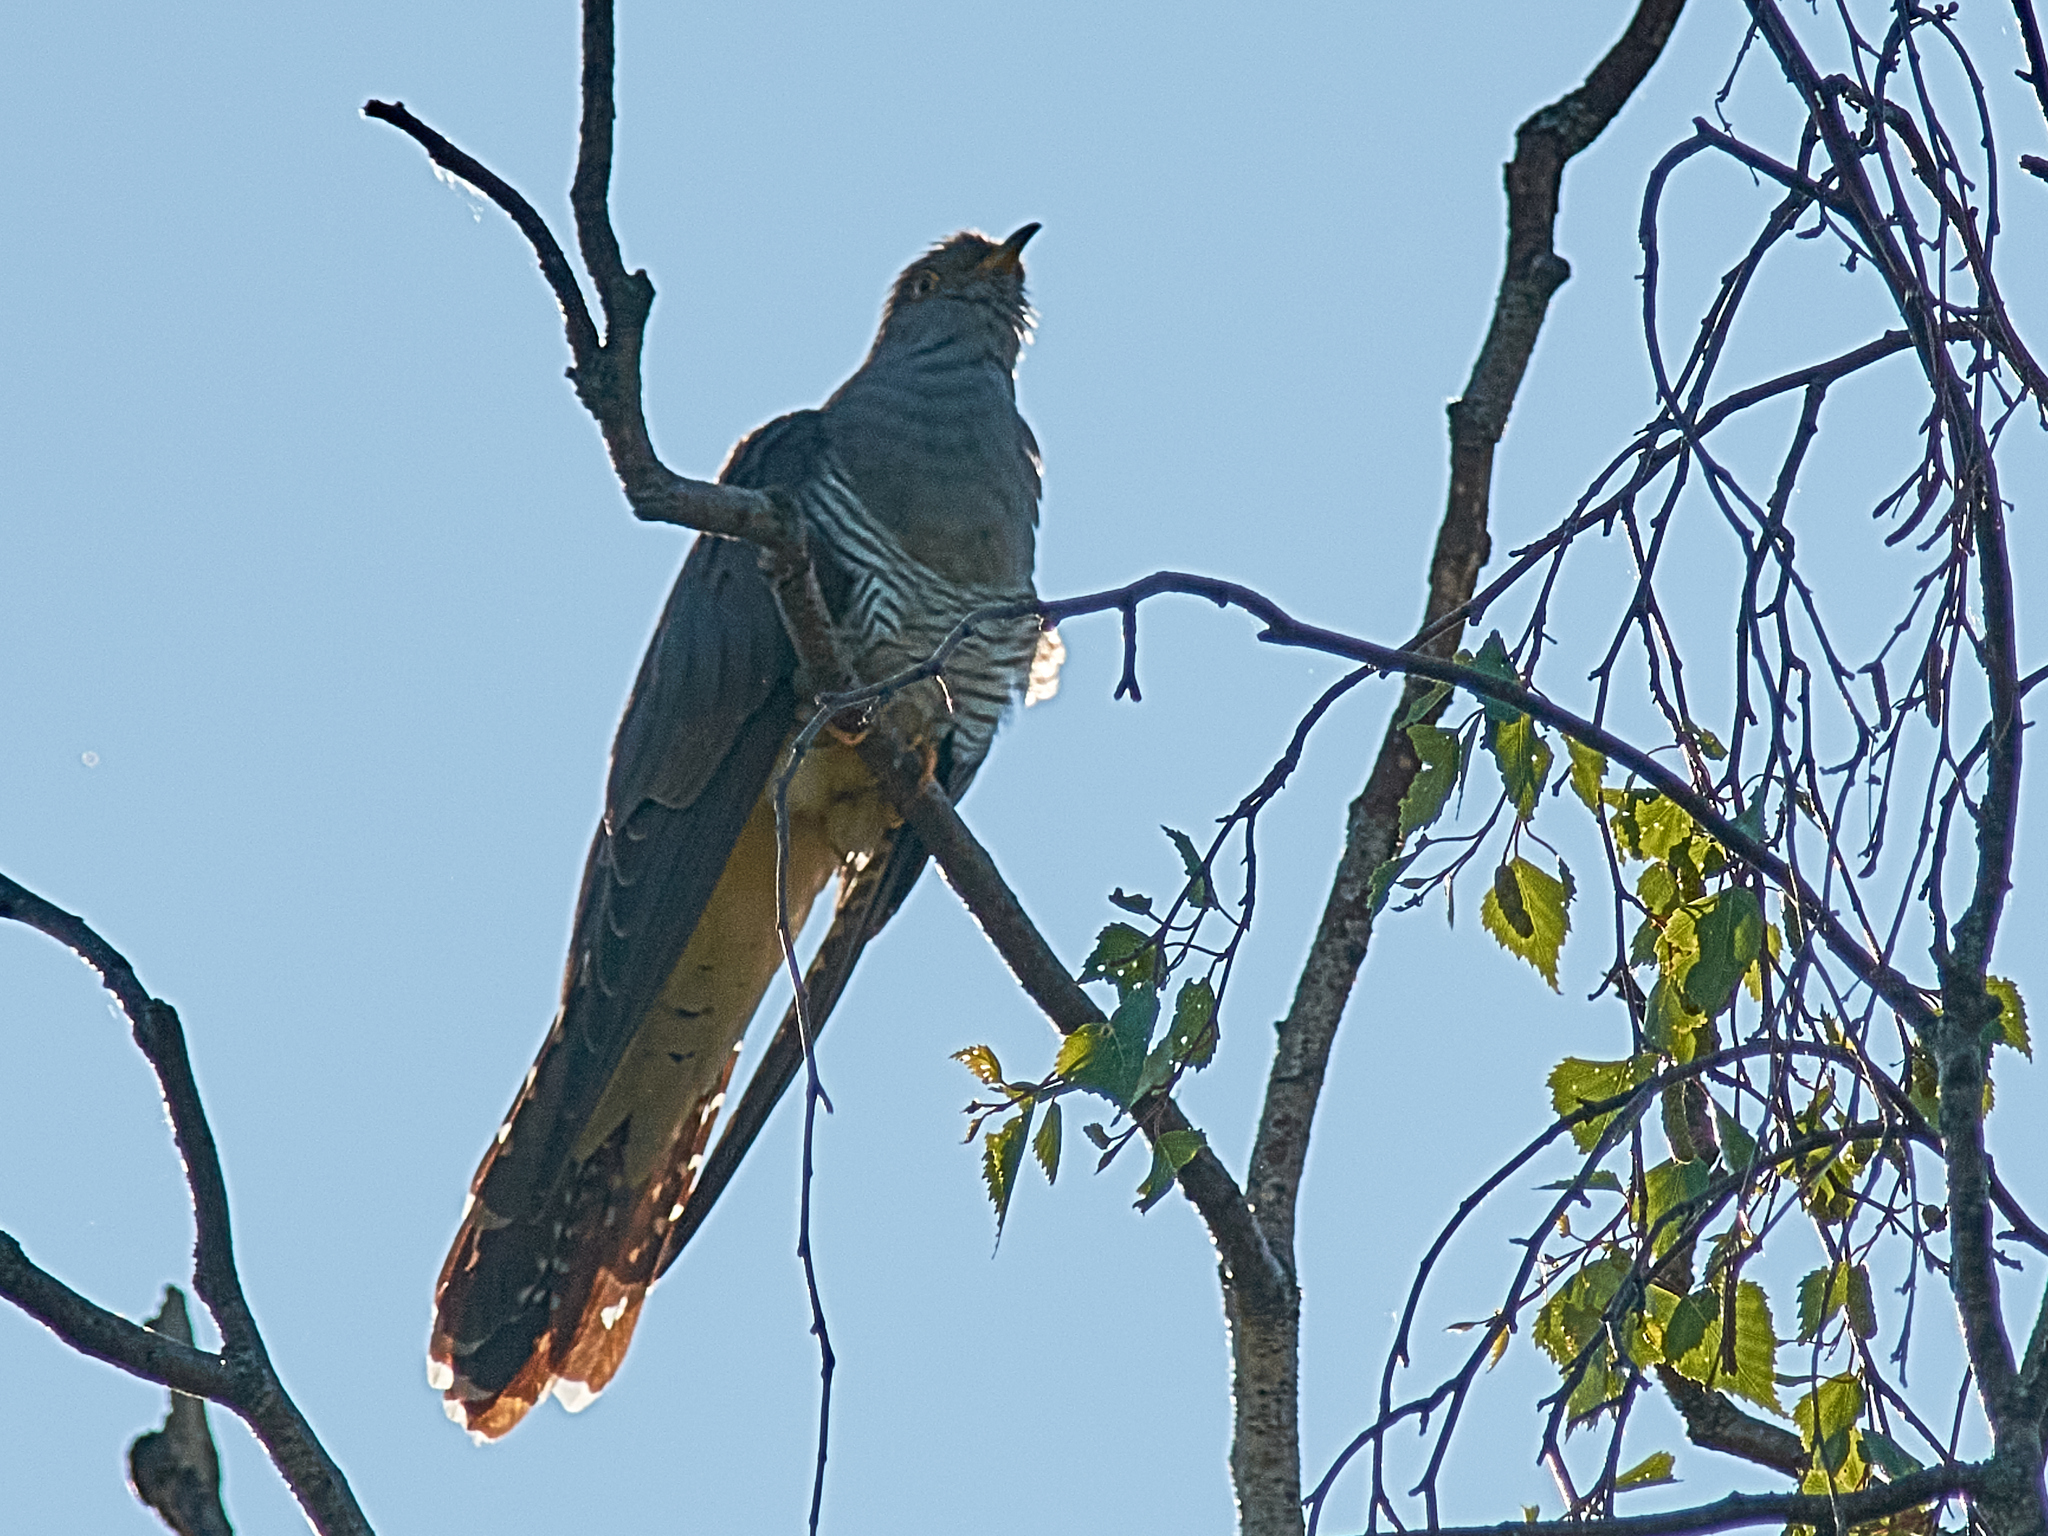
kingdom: Animalia
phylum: Chordata
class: Aves
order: Cuculiformes
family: Cuculidae
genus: Cuculus
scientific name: Cuculus canorus
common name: Common cuckoo
